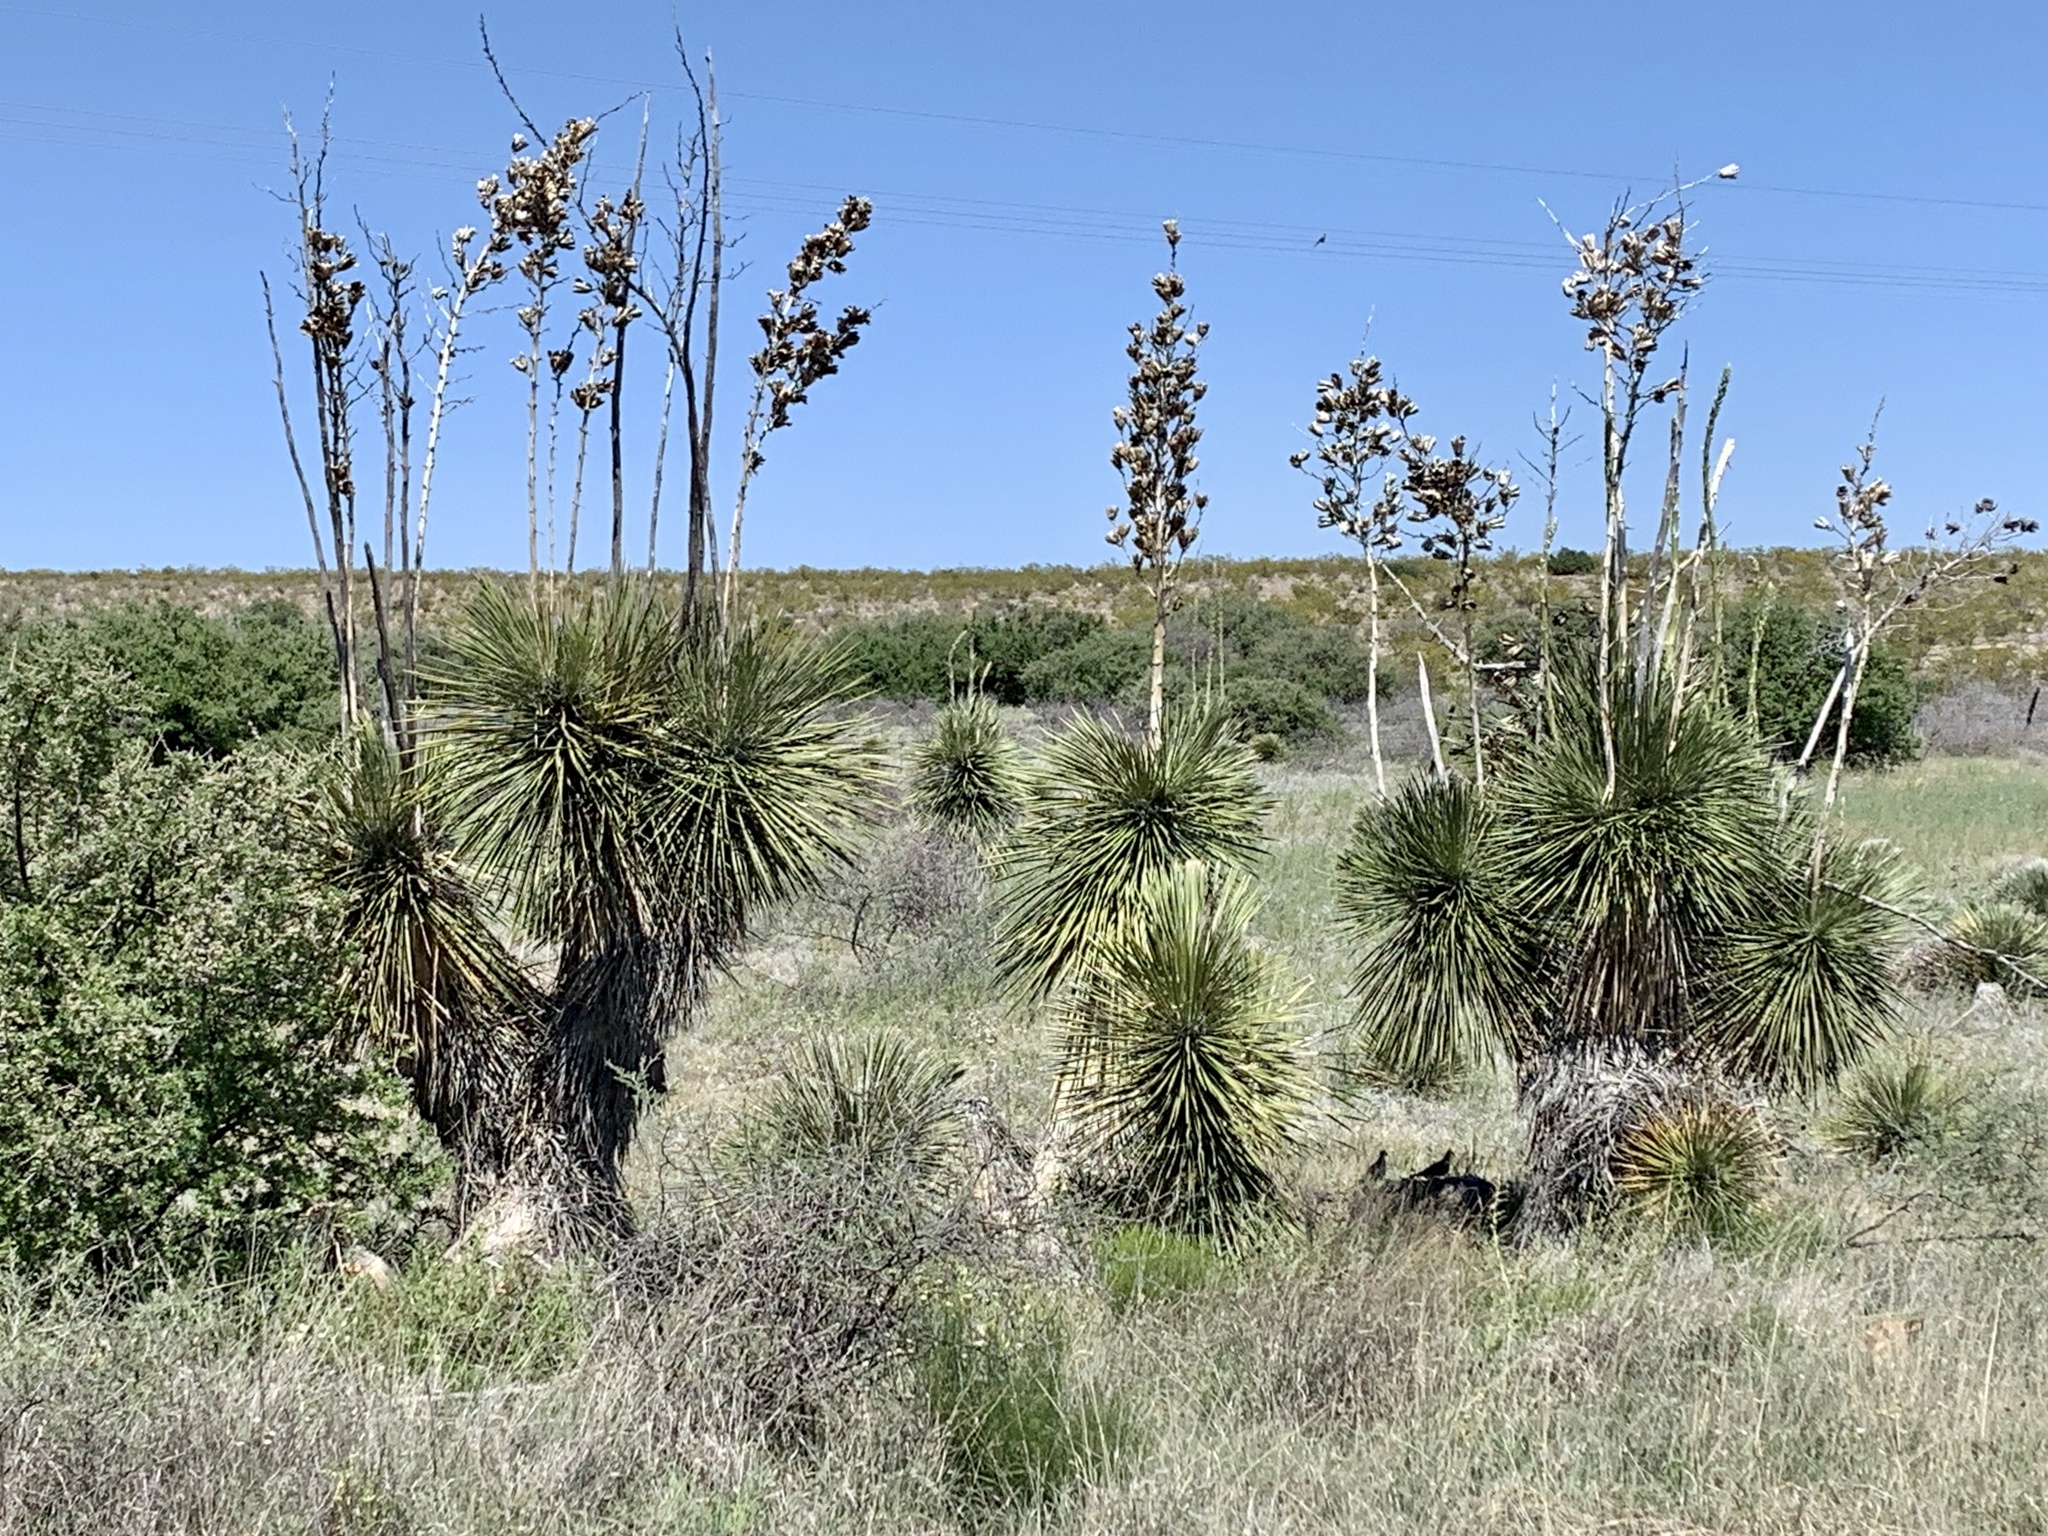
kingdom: Plantae
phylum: Tracheophyta
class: Liliopsida
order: Asparagales
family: Asparagaceae
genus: Yucca
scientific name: Yucca elata
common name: Palmella
